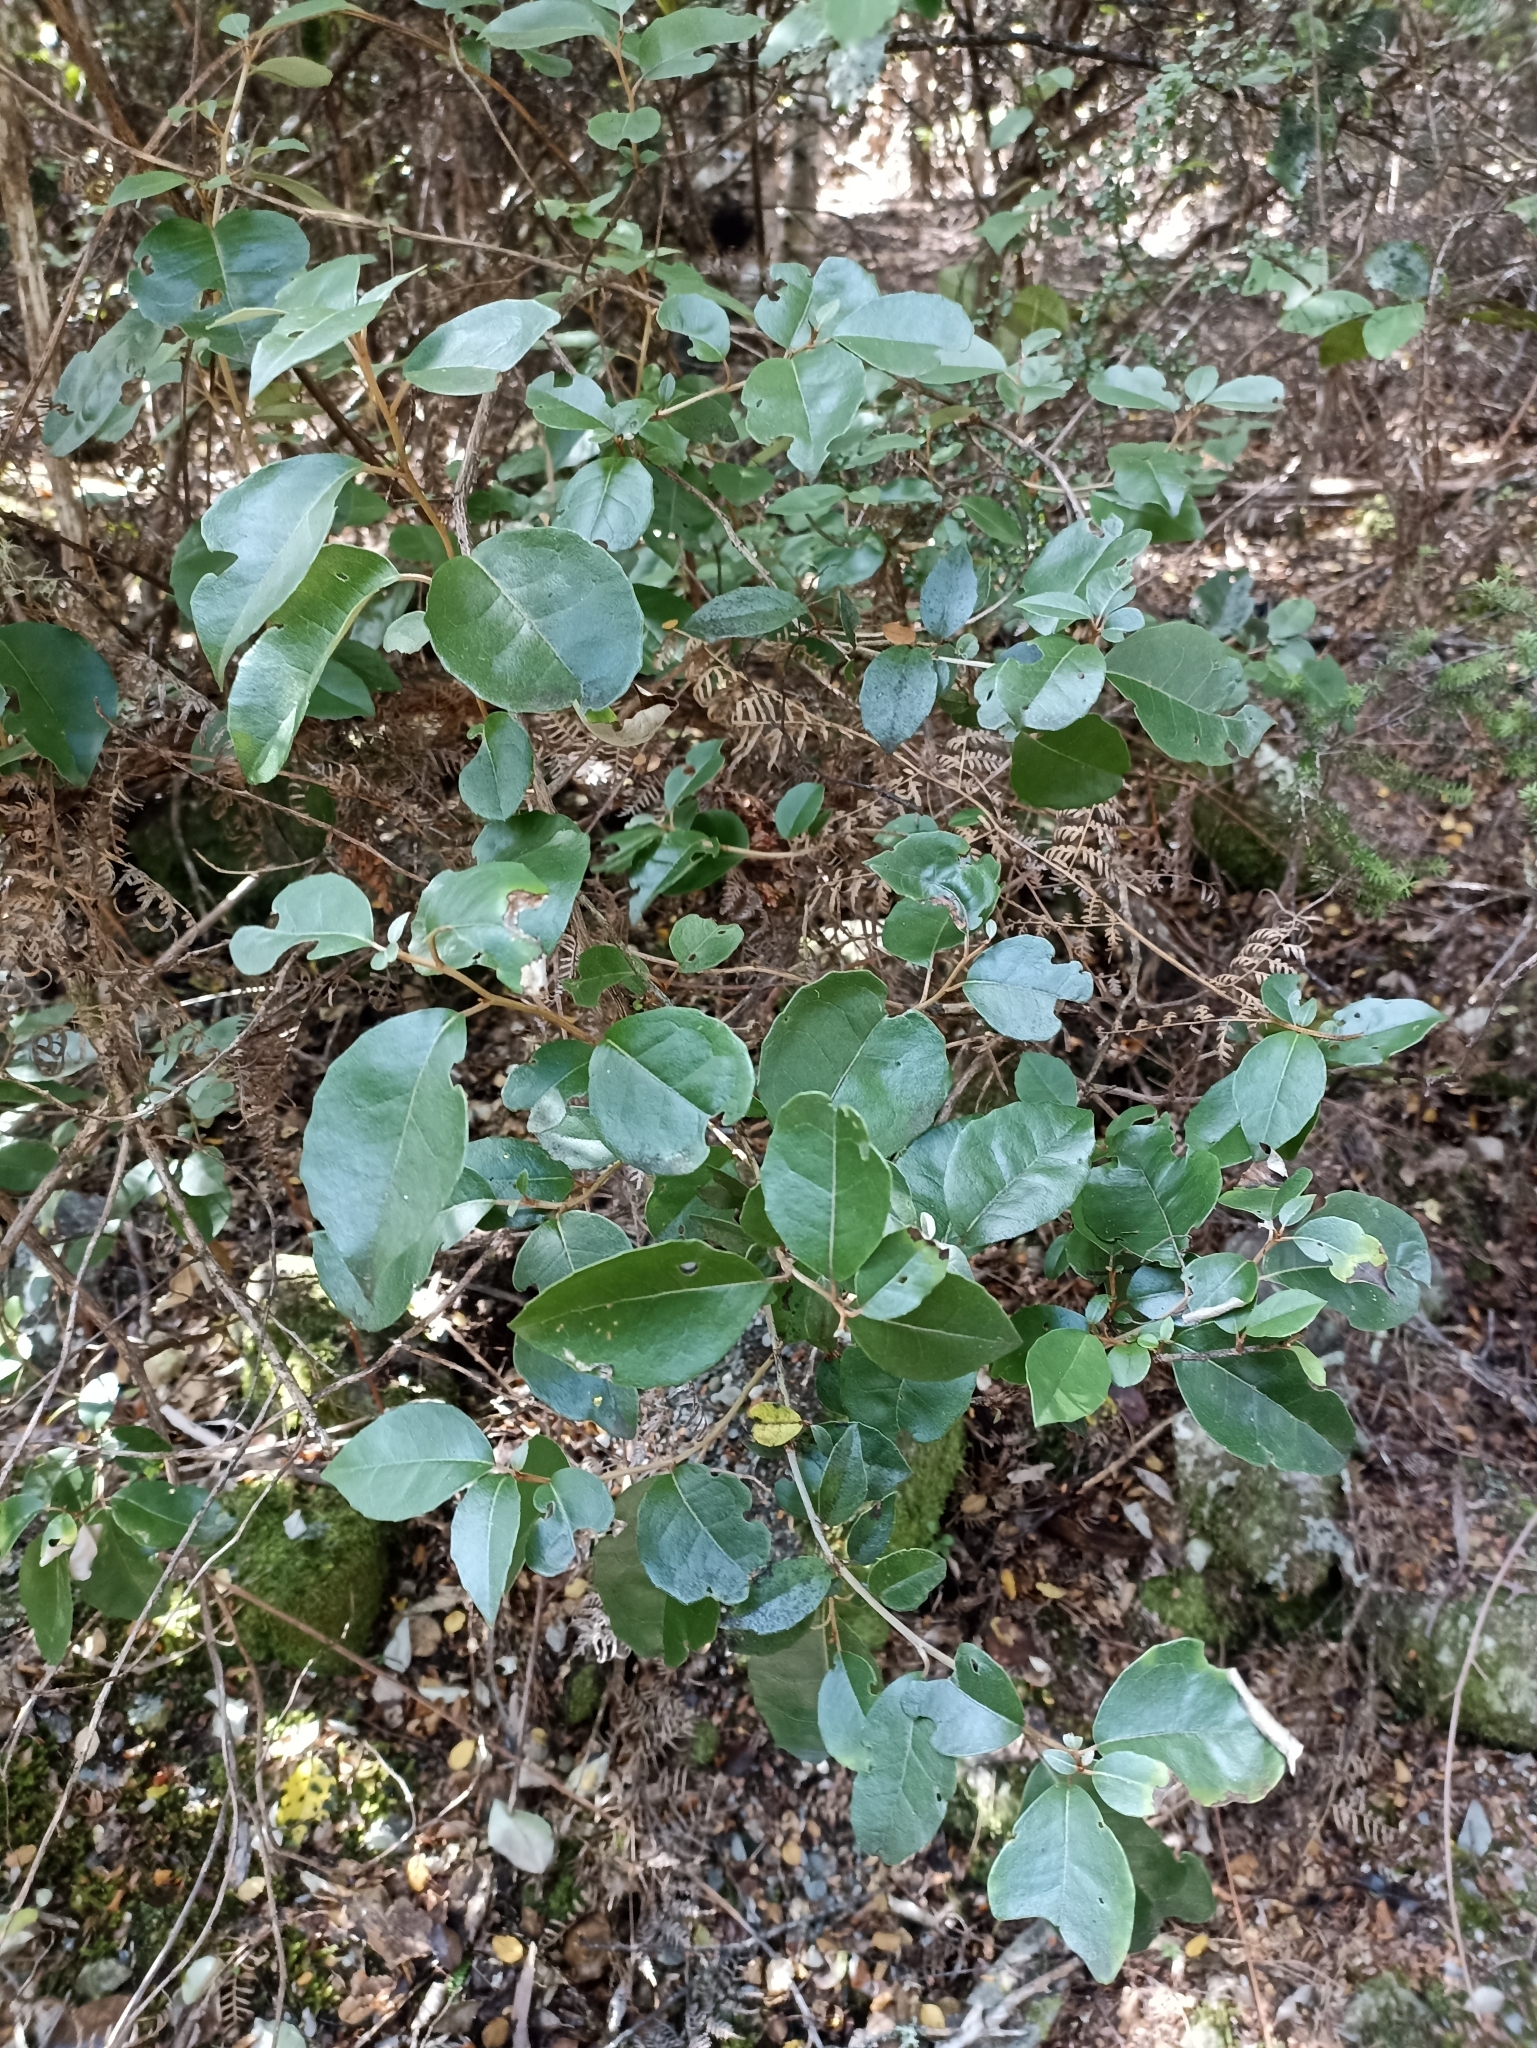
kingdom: Plantae
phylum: Tracheophyta
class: Magnoliopsida
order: Asterales
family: Asteraceae
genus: Olearia
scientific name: Olearia arborescens
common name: Glossy tree daisy
